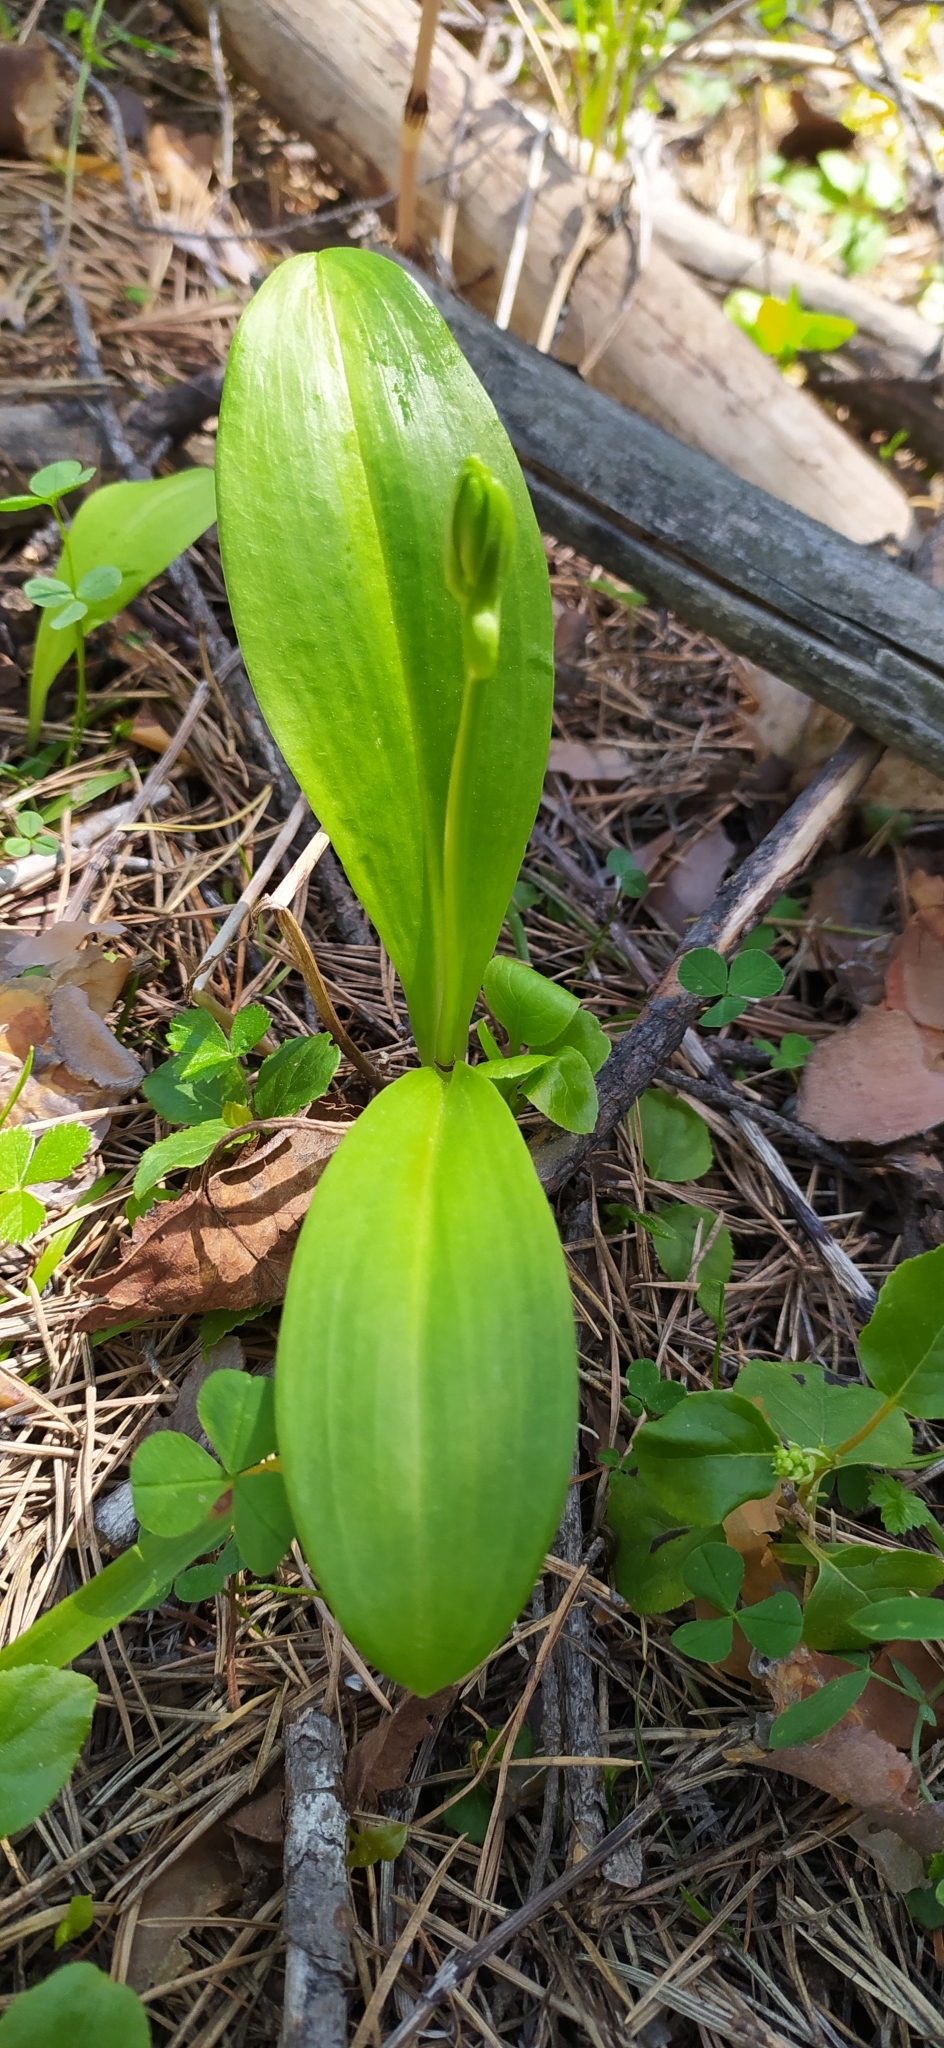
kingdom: Plantae
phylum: Tracheophyta
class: Liliopsida
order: Asparagales
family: Orchidaceae
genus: Platanthera
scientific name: Platanthera bifolia
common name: Lesser butterfly-orchid
